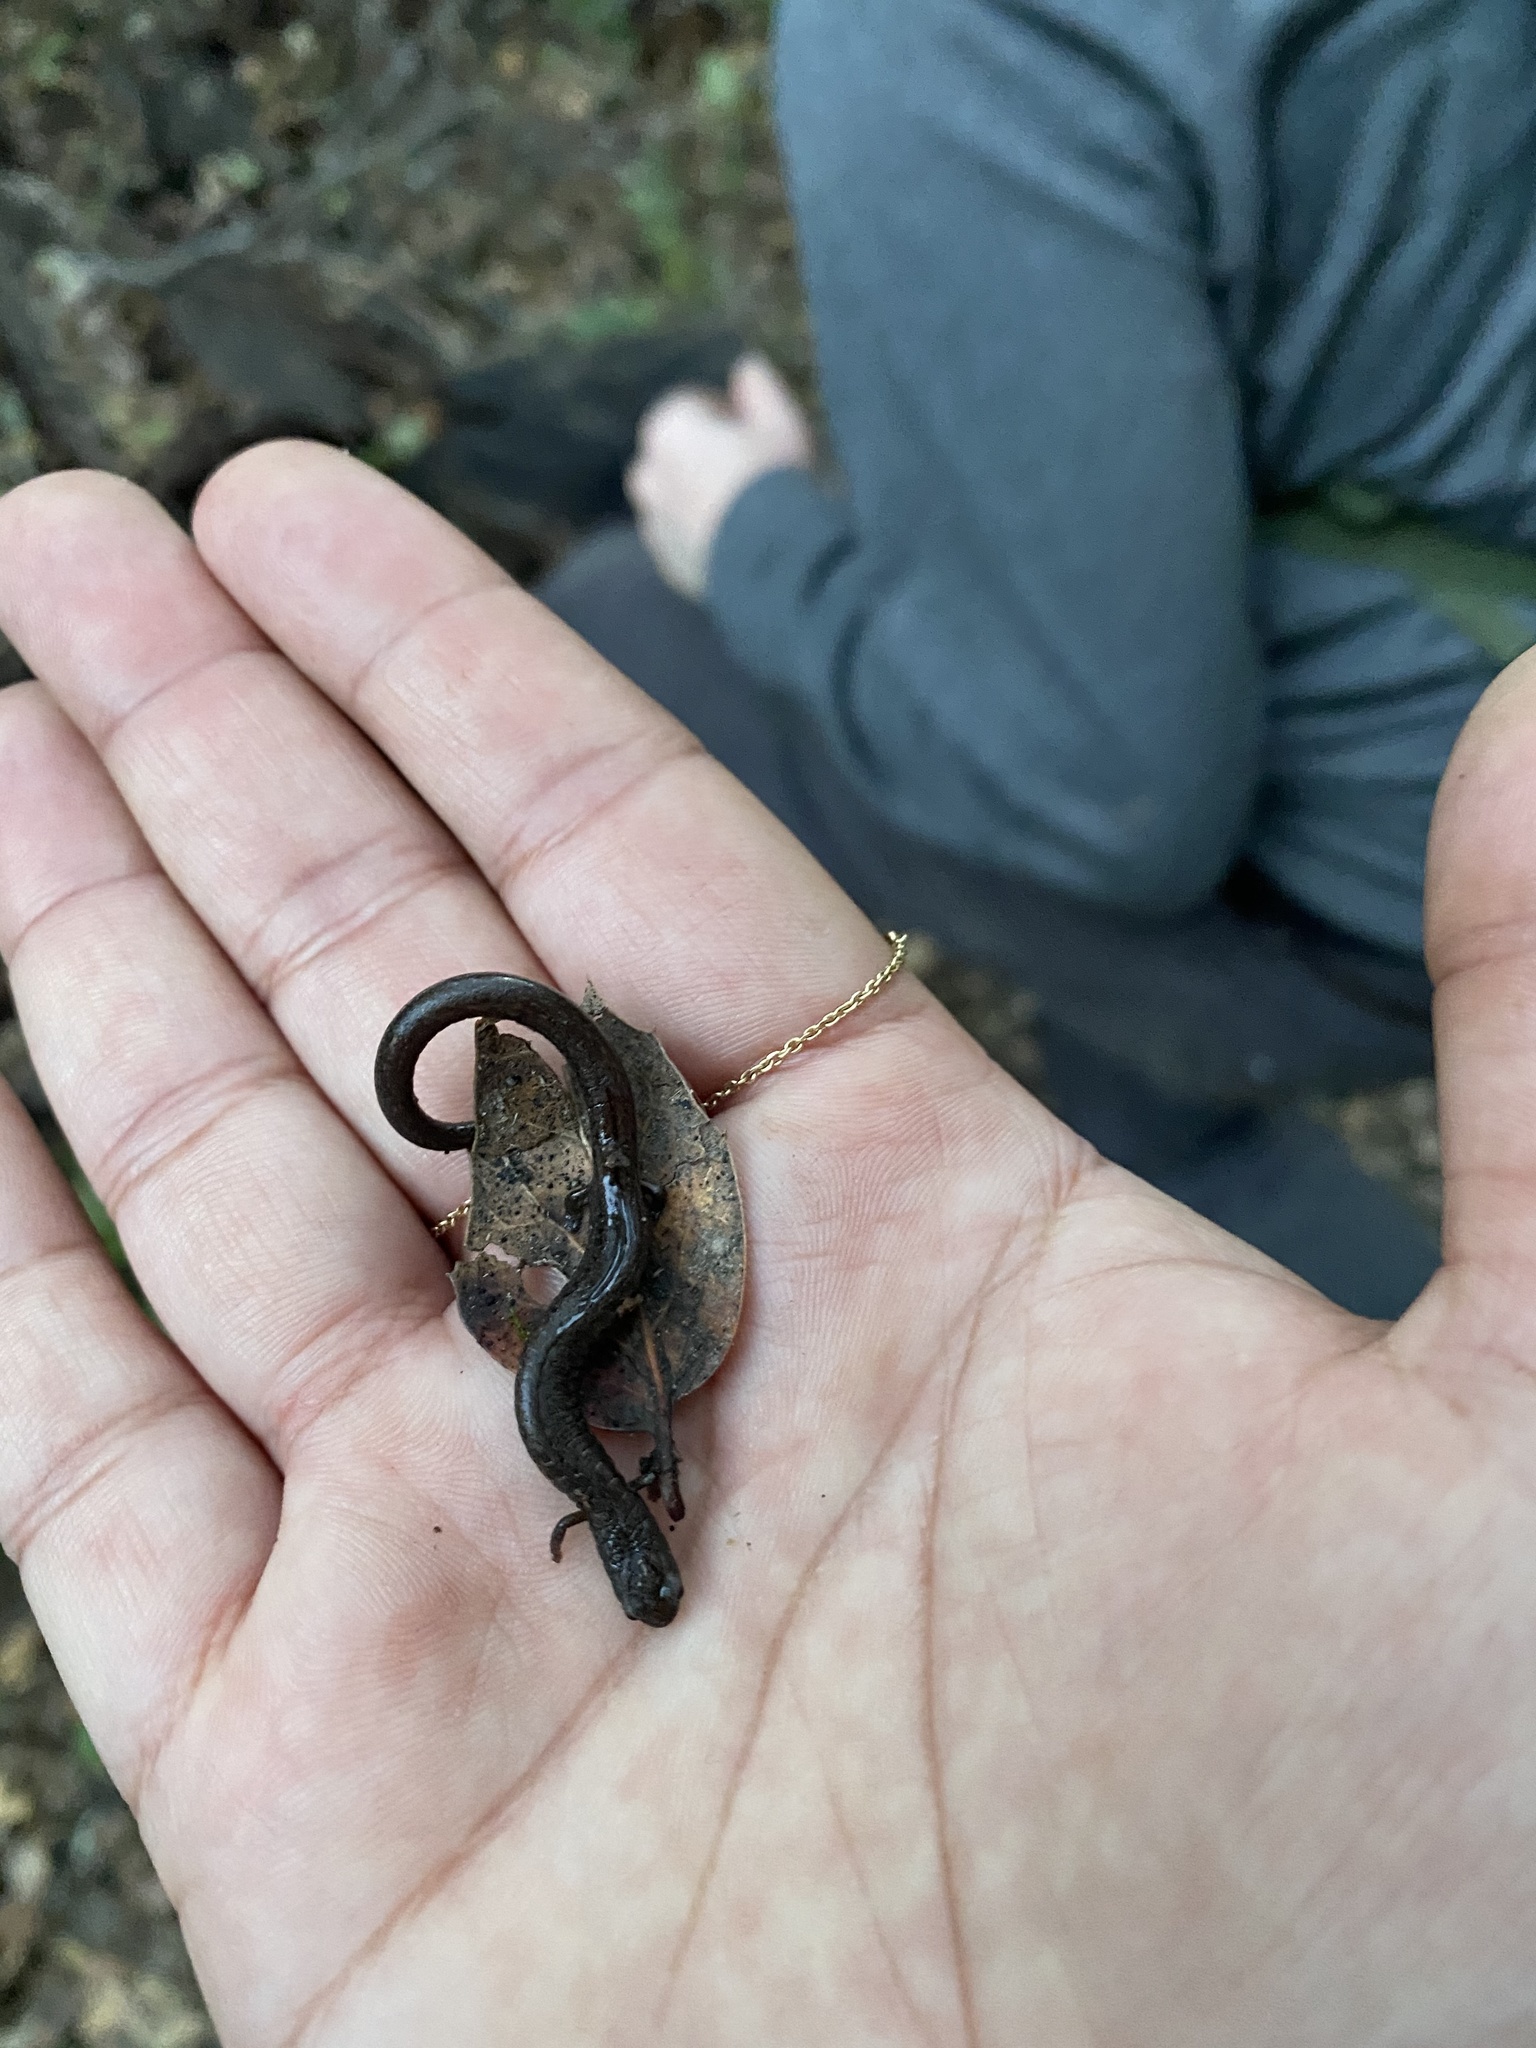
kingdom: Animalia
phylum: Chordata
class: Amphibia
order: Caudata
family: Plethodontidae
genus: Batrachoseps
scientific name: Batrachoseps attenuatus
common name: California slender salamander
